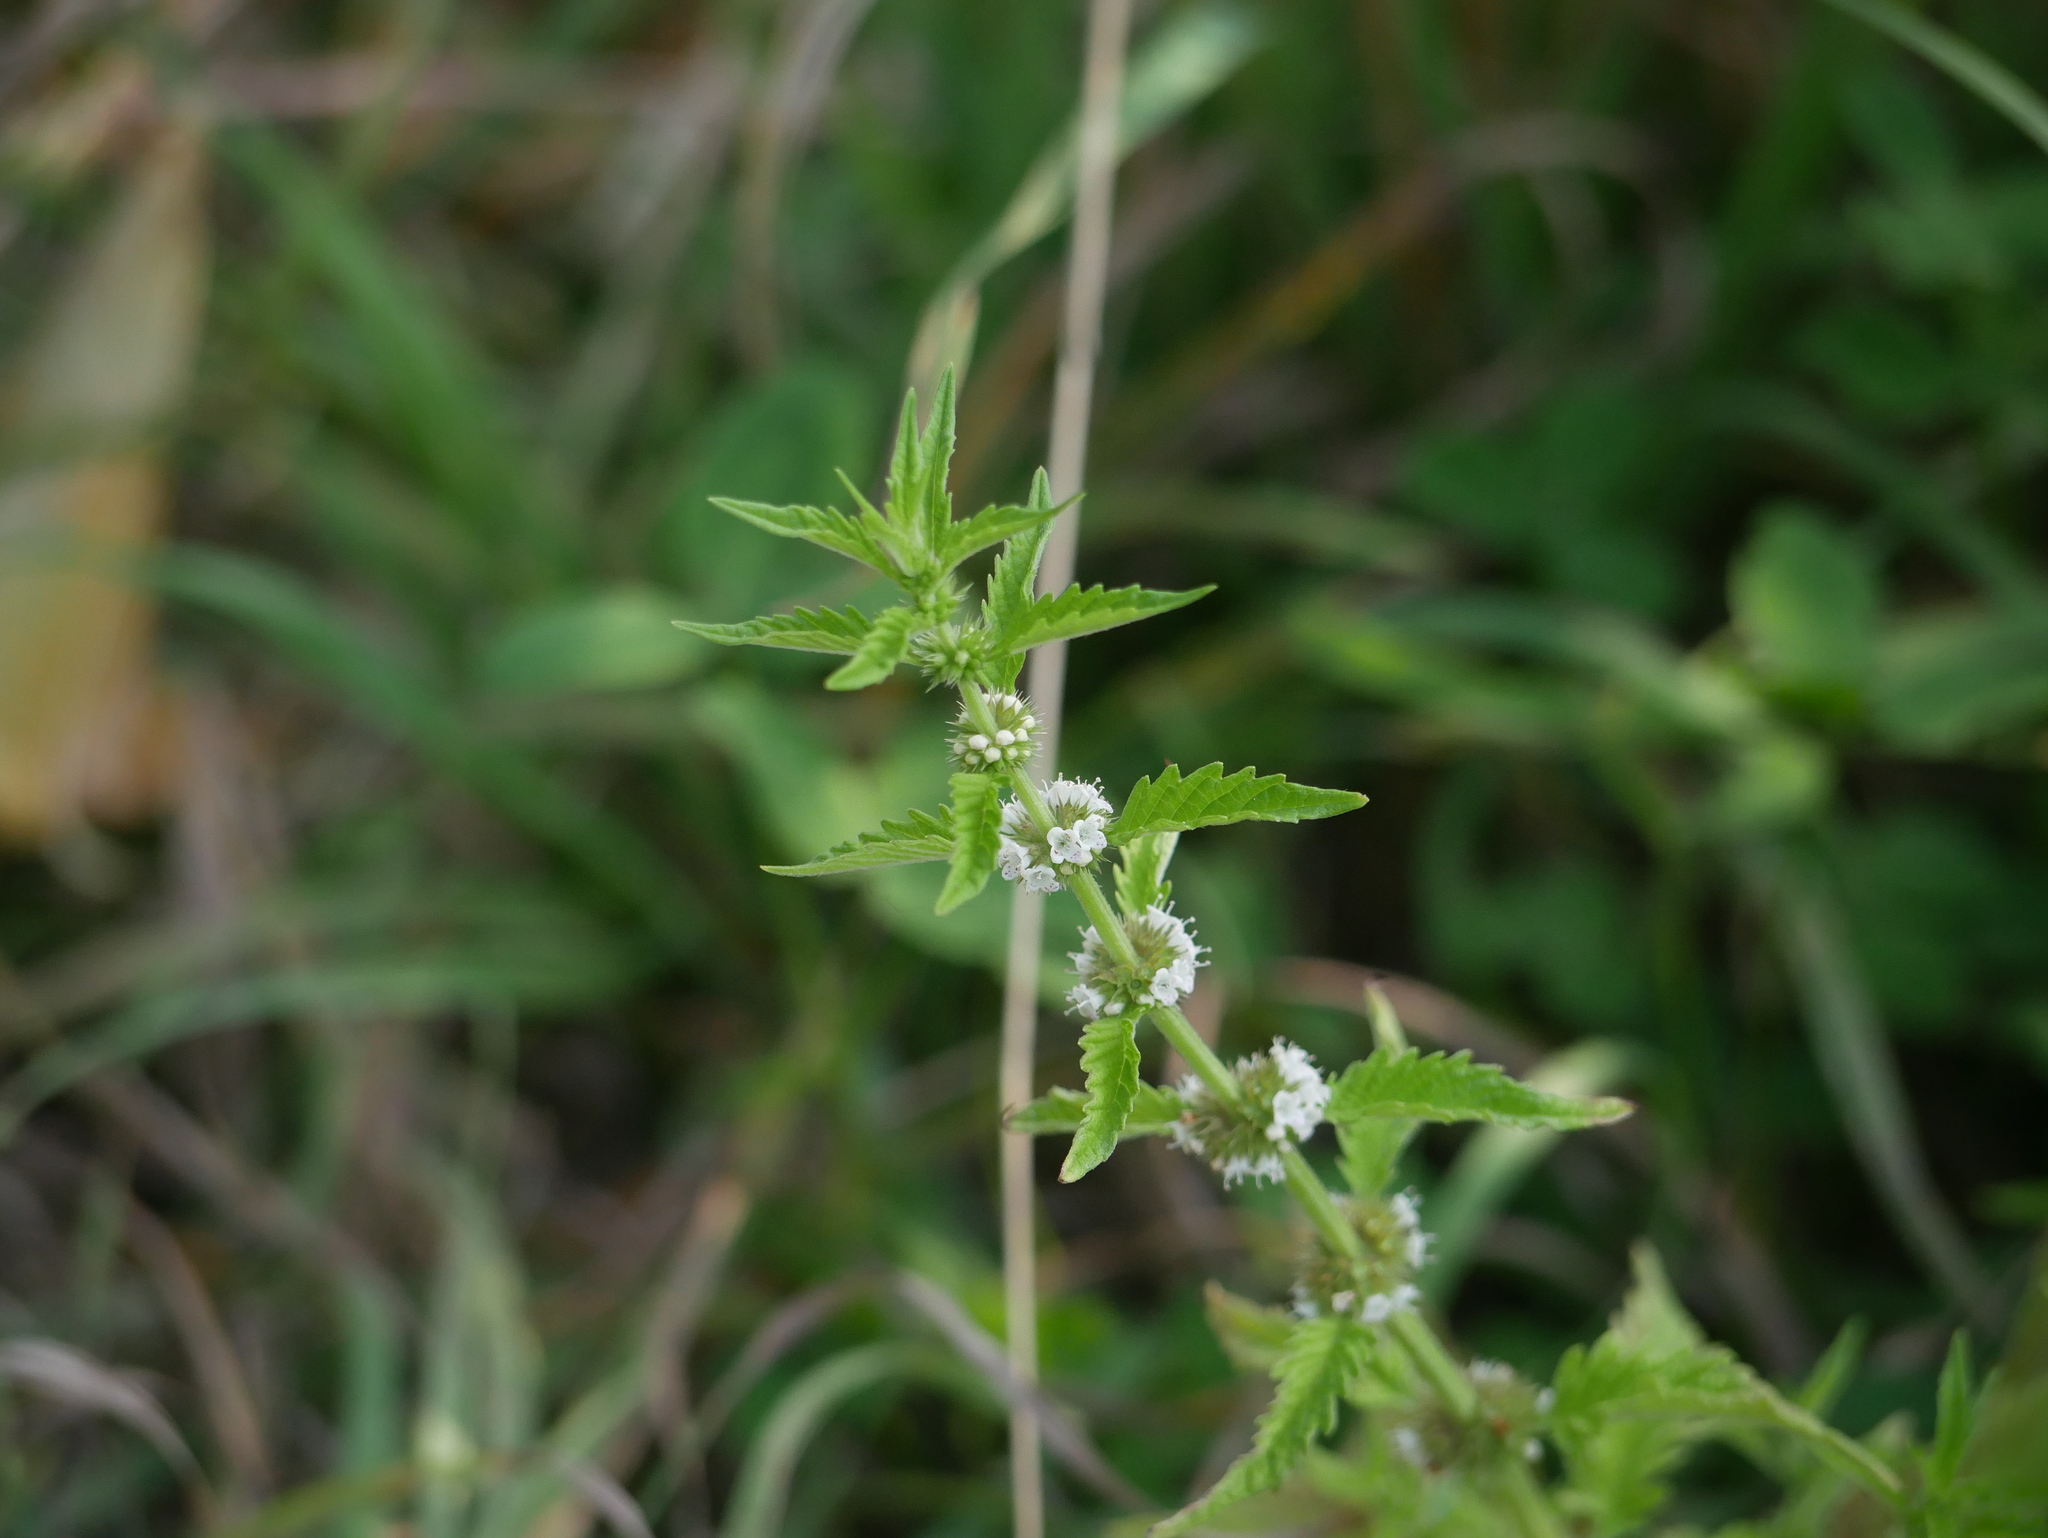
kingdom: Plantae
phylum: Tracheophyta
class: Magnoliopsida
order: Lamiales
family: Lamiaceae
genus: Lycopus
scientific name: Lycopus europaeus
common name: European bugleweed
